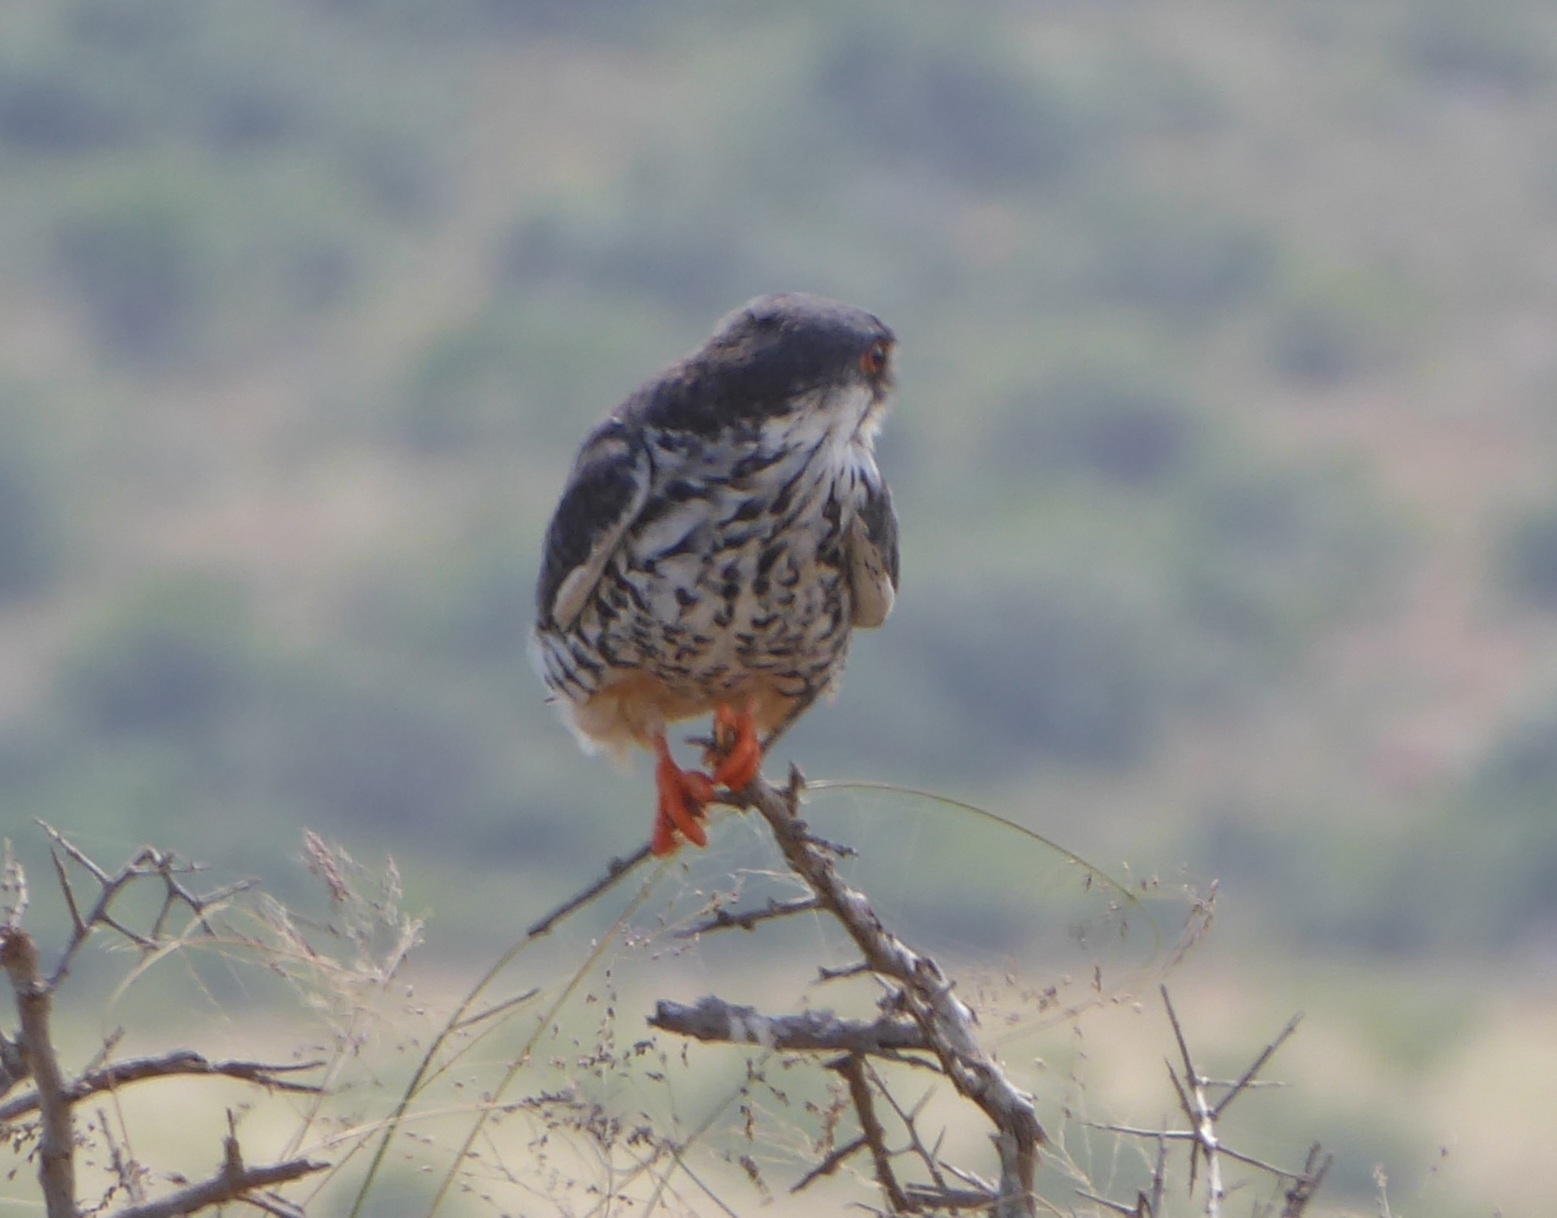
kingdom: Animalia
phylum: Chordata
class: Aves
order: Falconiformes
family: Falconidae
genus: Falco
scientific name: Falco amurensis
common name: Amur falcon
